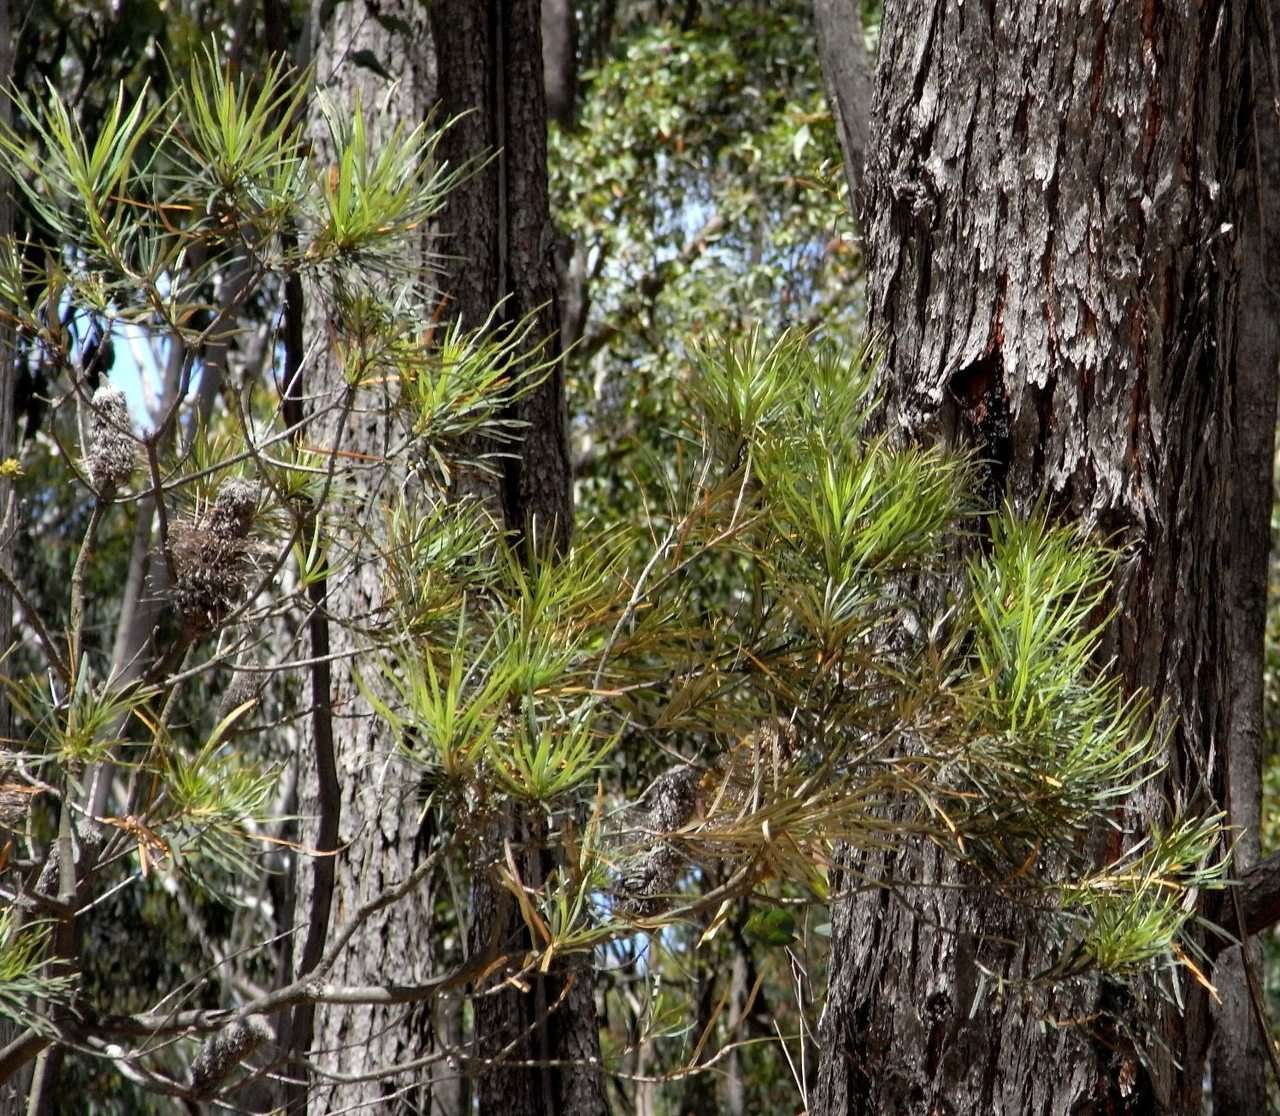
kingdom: Plantae
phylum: Tracheophyta
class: Magnoliopsida
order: Proteales
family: Proteaceae
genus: Banksia
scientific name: Banksia spinulosa
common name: Hairpin banksia
